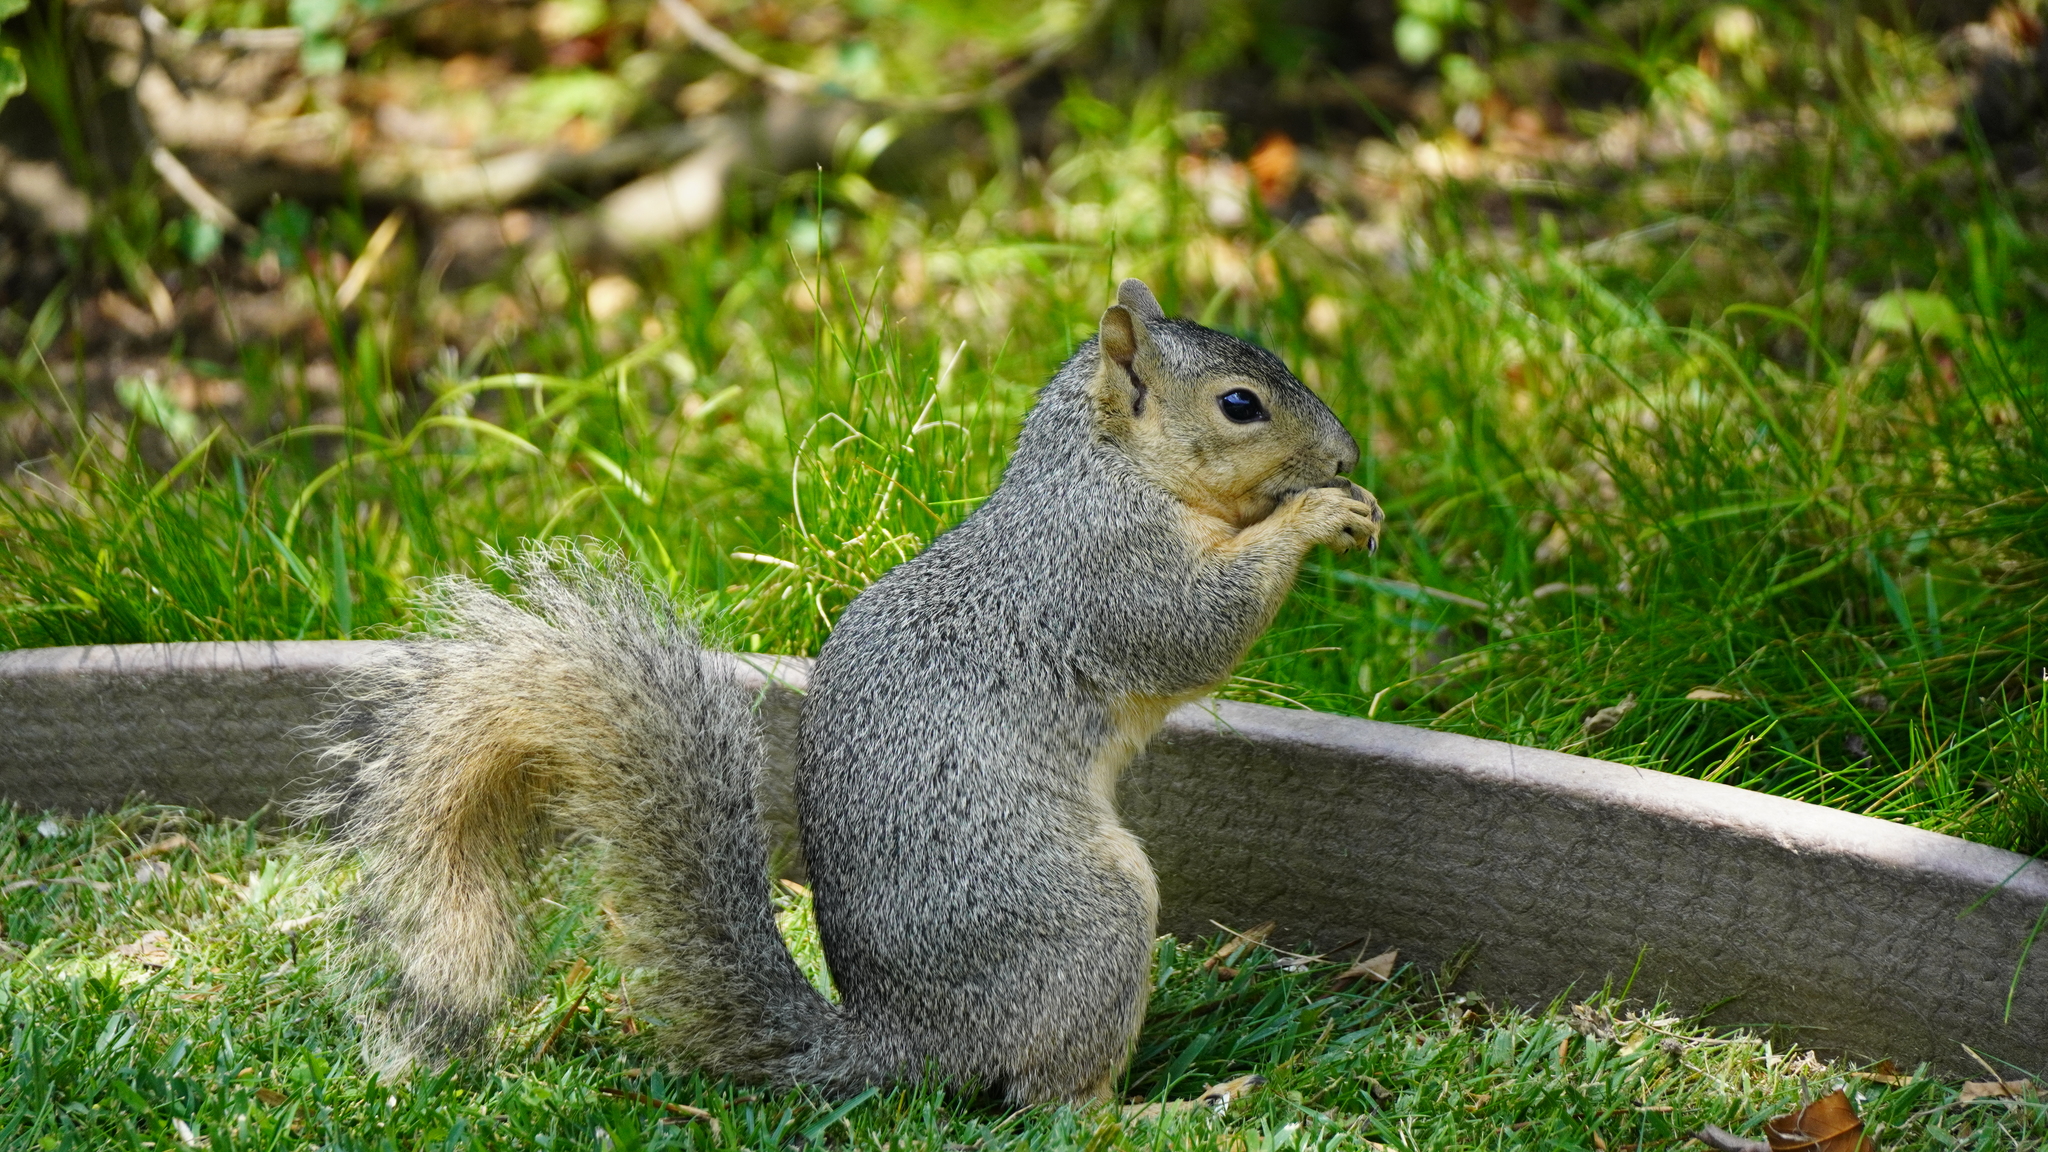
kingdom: Animalia
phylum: Chordata
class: Mammalia
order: Rodentia
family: Sciuridae
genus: Sciurus
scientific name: Sciurus niger
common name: Fox squirrel
